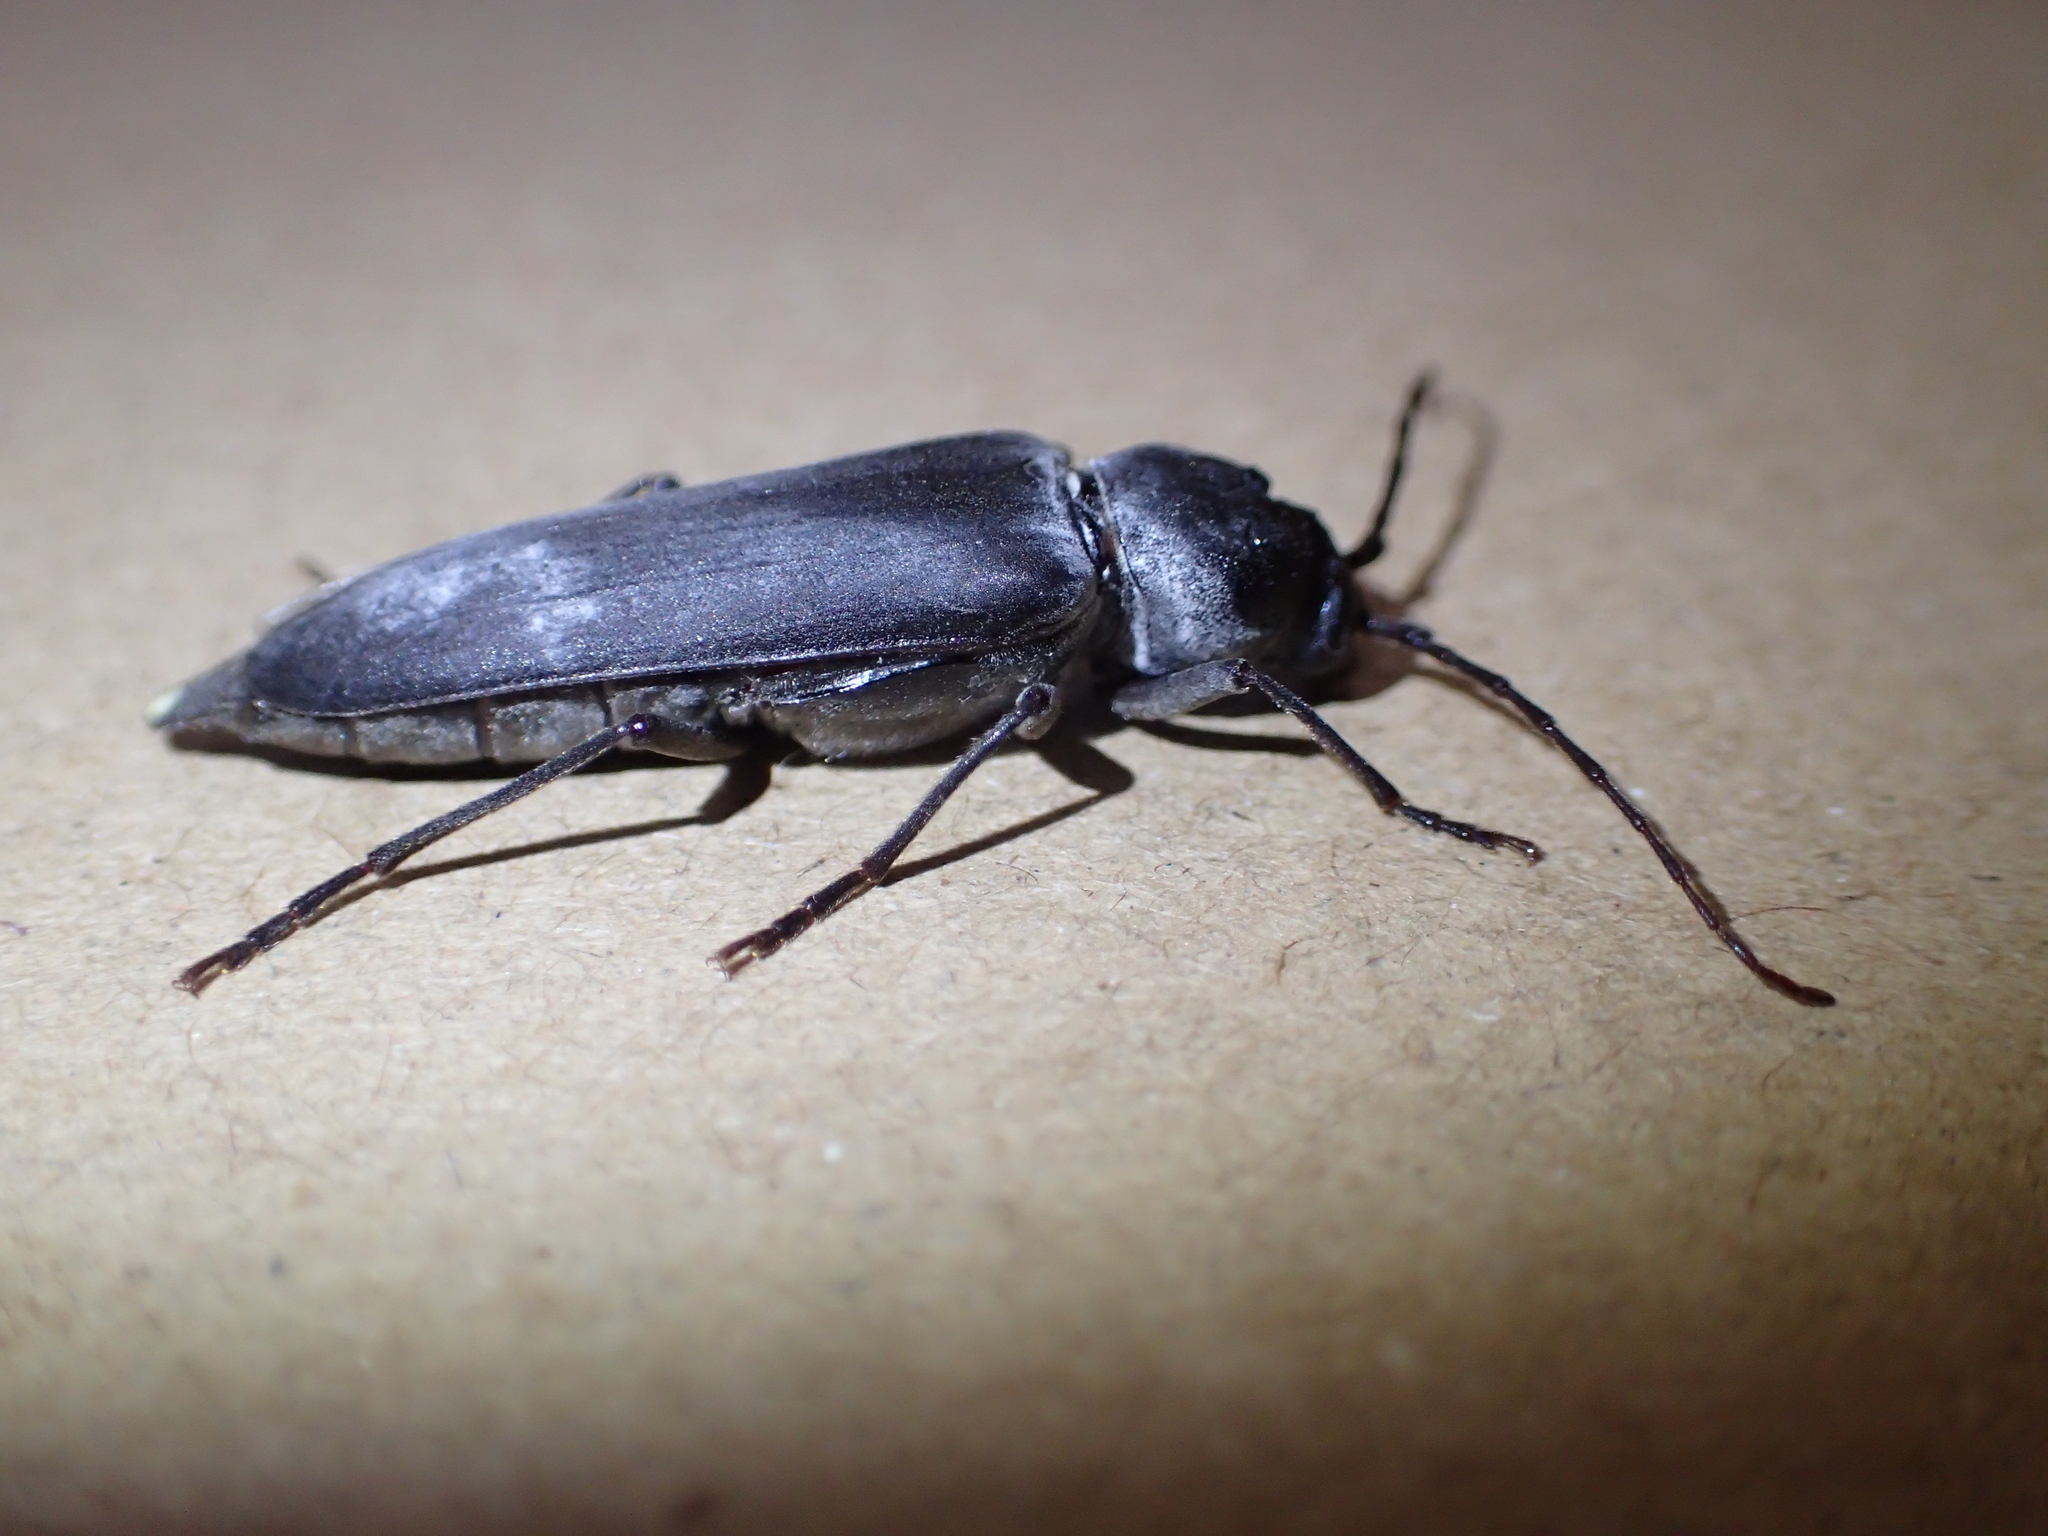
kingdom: Animalia
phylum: Arthropoda
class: Insecta
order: Coleoptera
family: Cerambycidae
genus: Arhopalus
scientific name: Arhopalus ferus
